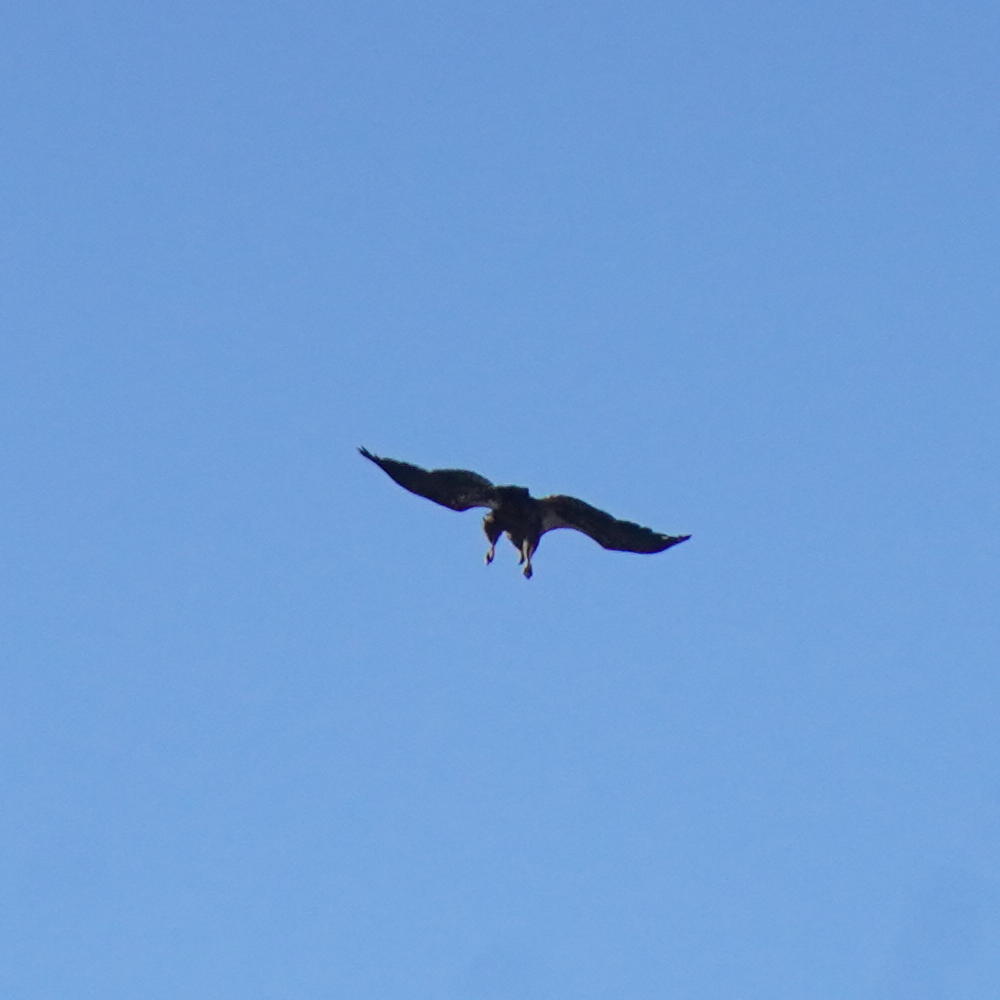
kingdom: Animalia
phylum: Chordata
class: Aves
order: Accipitriformes
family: Accipitridae
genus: Haliaeetus
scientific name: Haliaeetus leucocephalus
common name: Bald eagle
